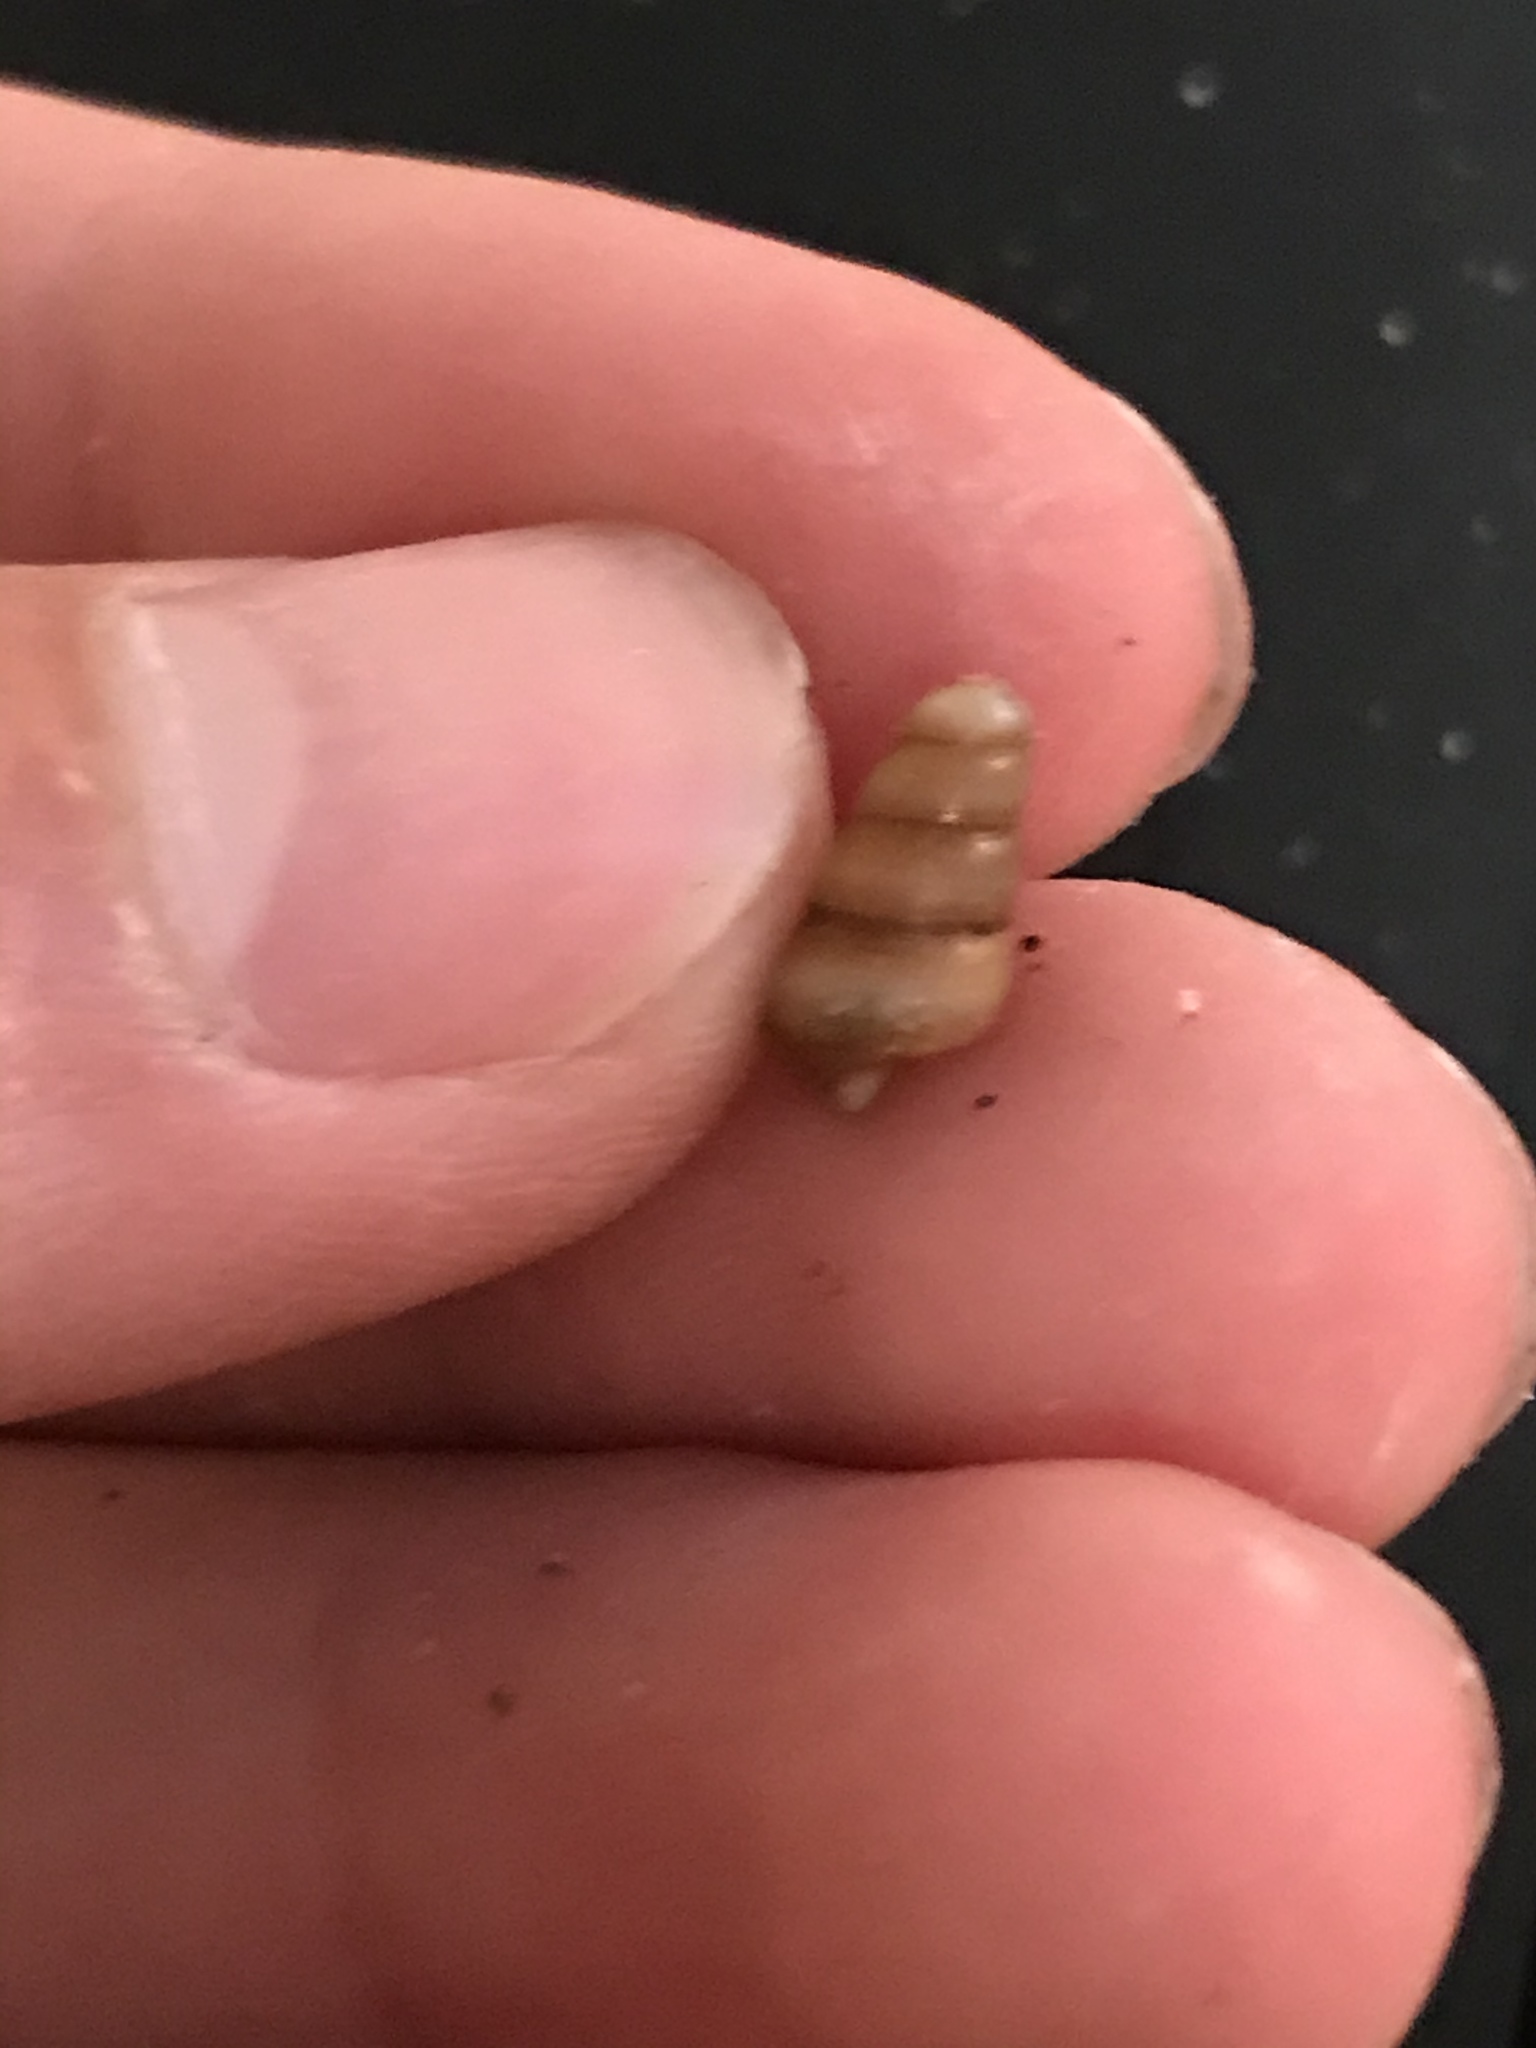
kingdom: Animalia
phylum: Mollusca
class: Gastropoda
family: Potamididae
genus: Cerithideopsis
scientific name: Cerithideopsis californica
